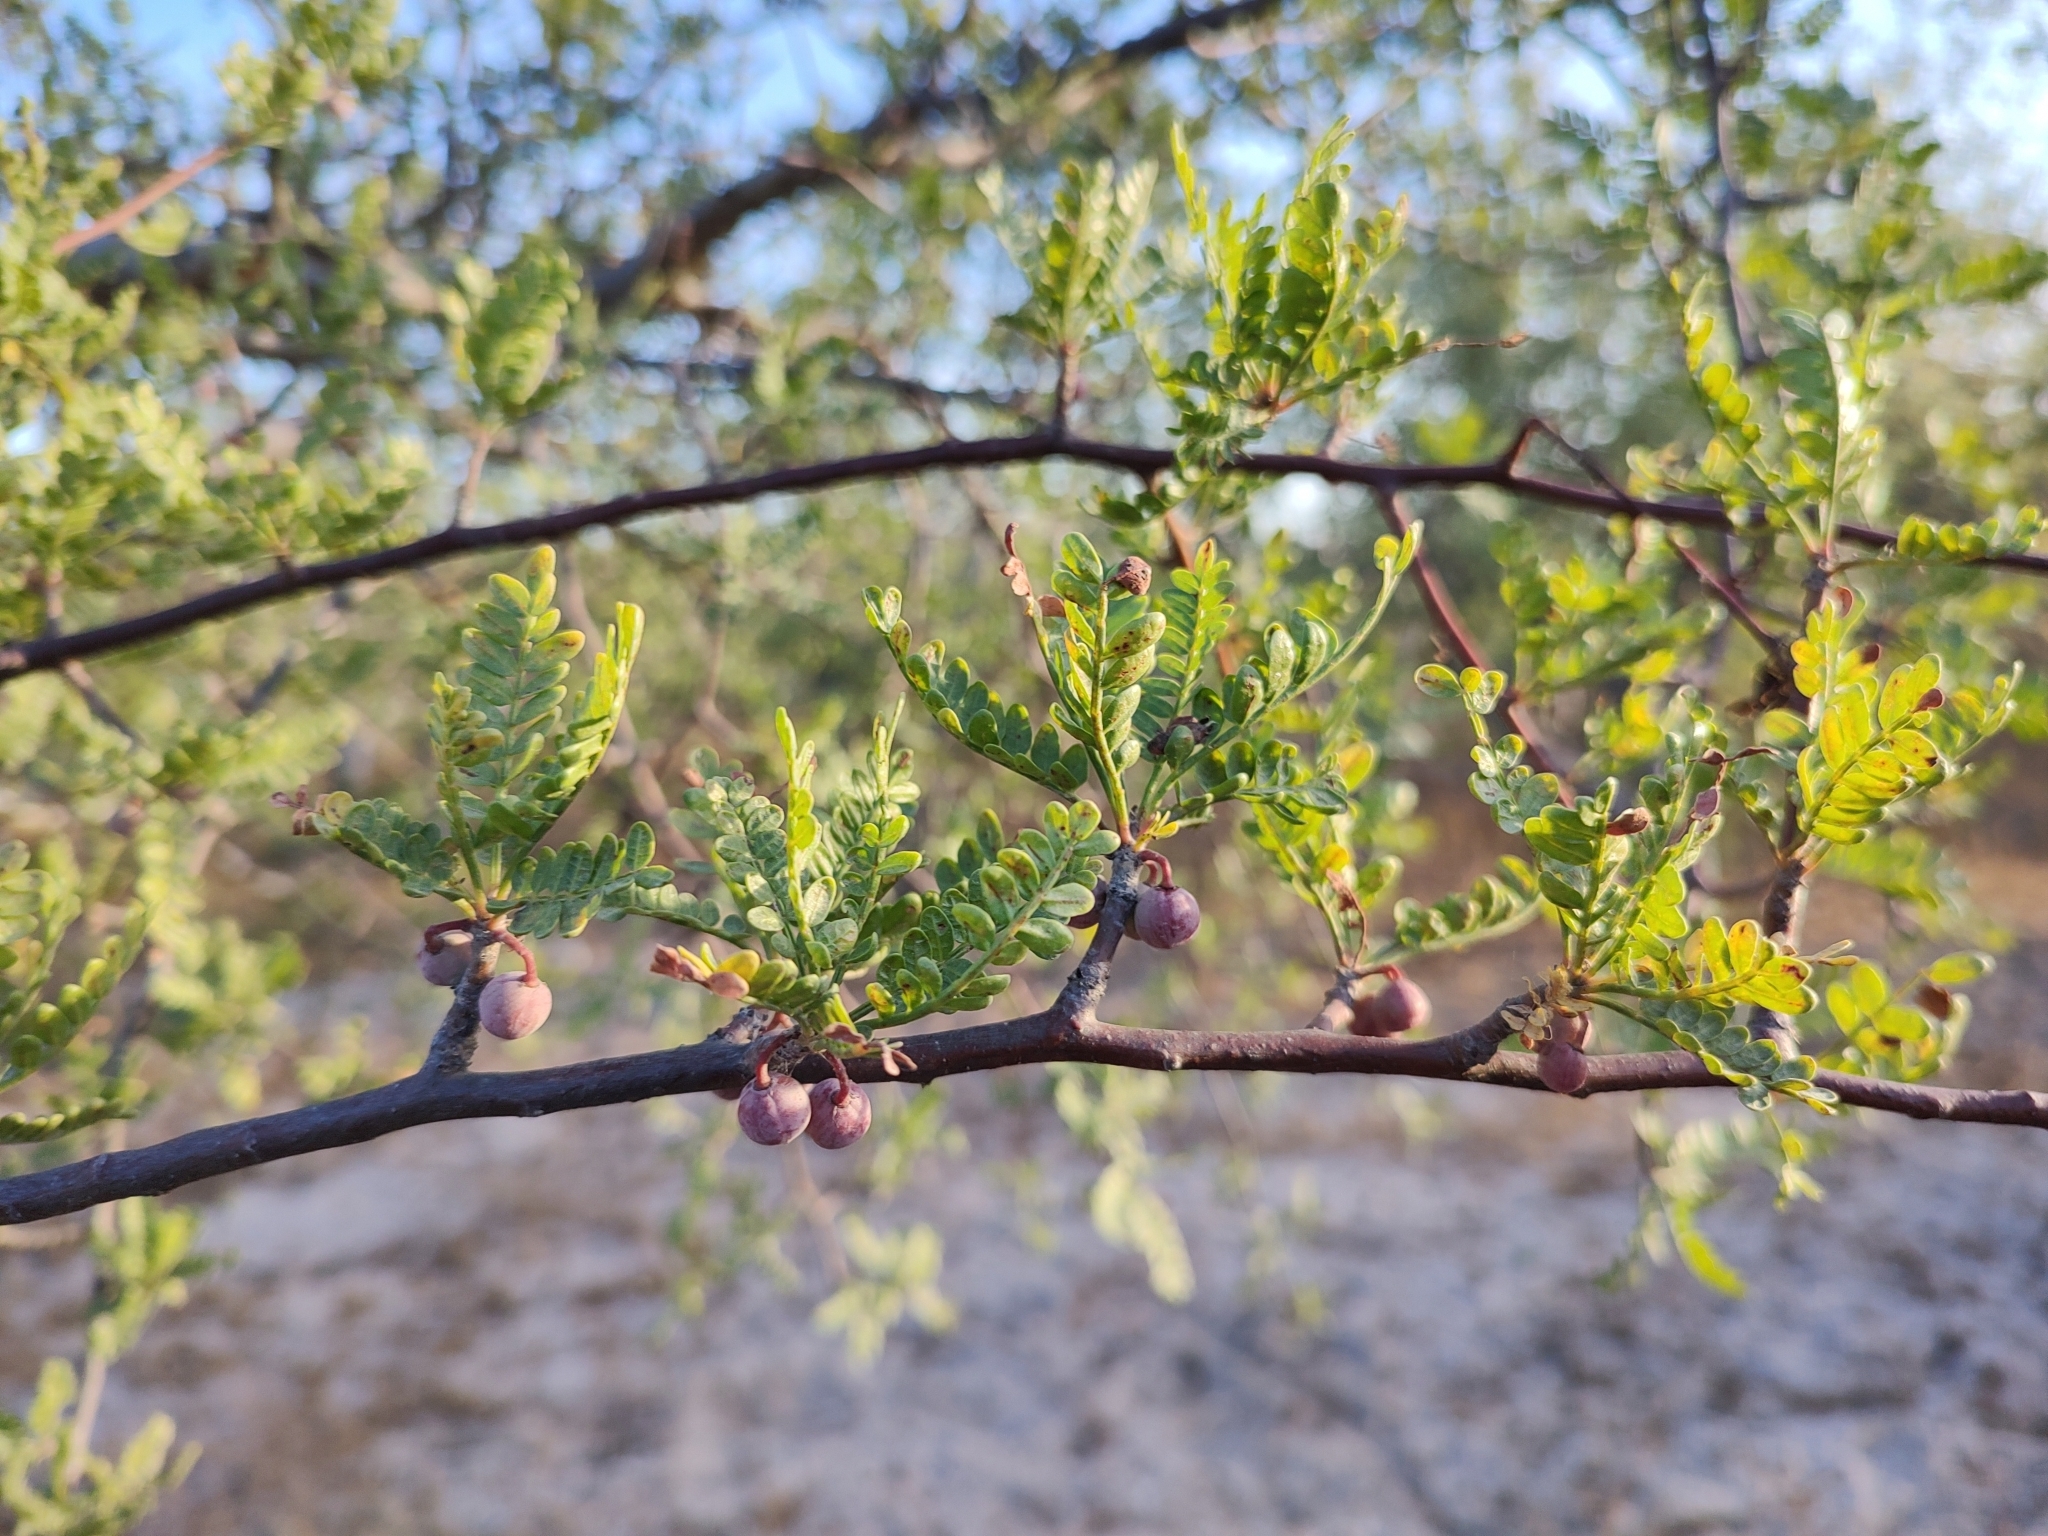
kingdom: Plantae
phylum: Tracheophyta
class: Magnoliopsida
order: Sapindales
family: Burseraceae
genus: Bursera
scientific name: Bursera microphylla
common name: Elephant tree
